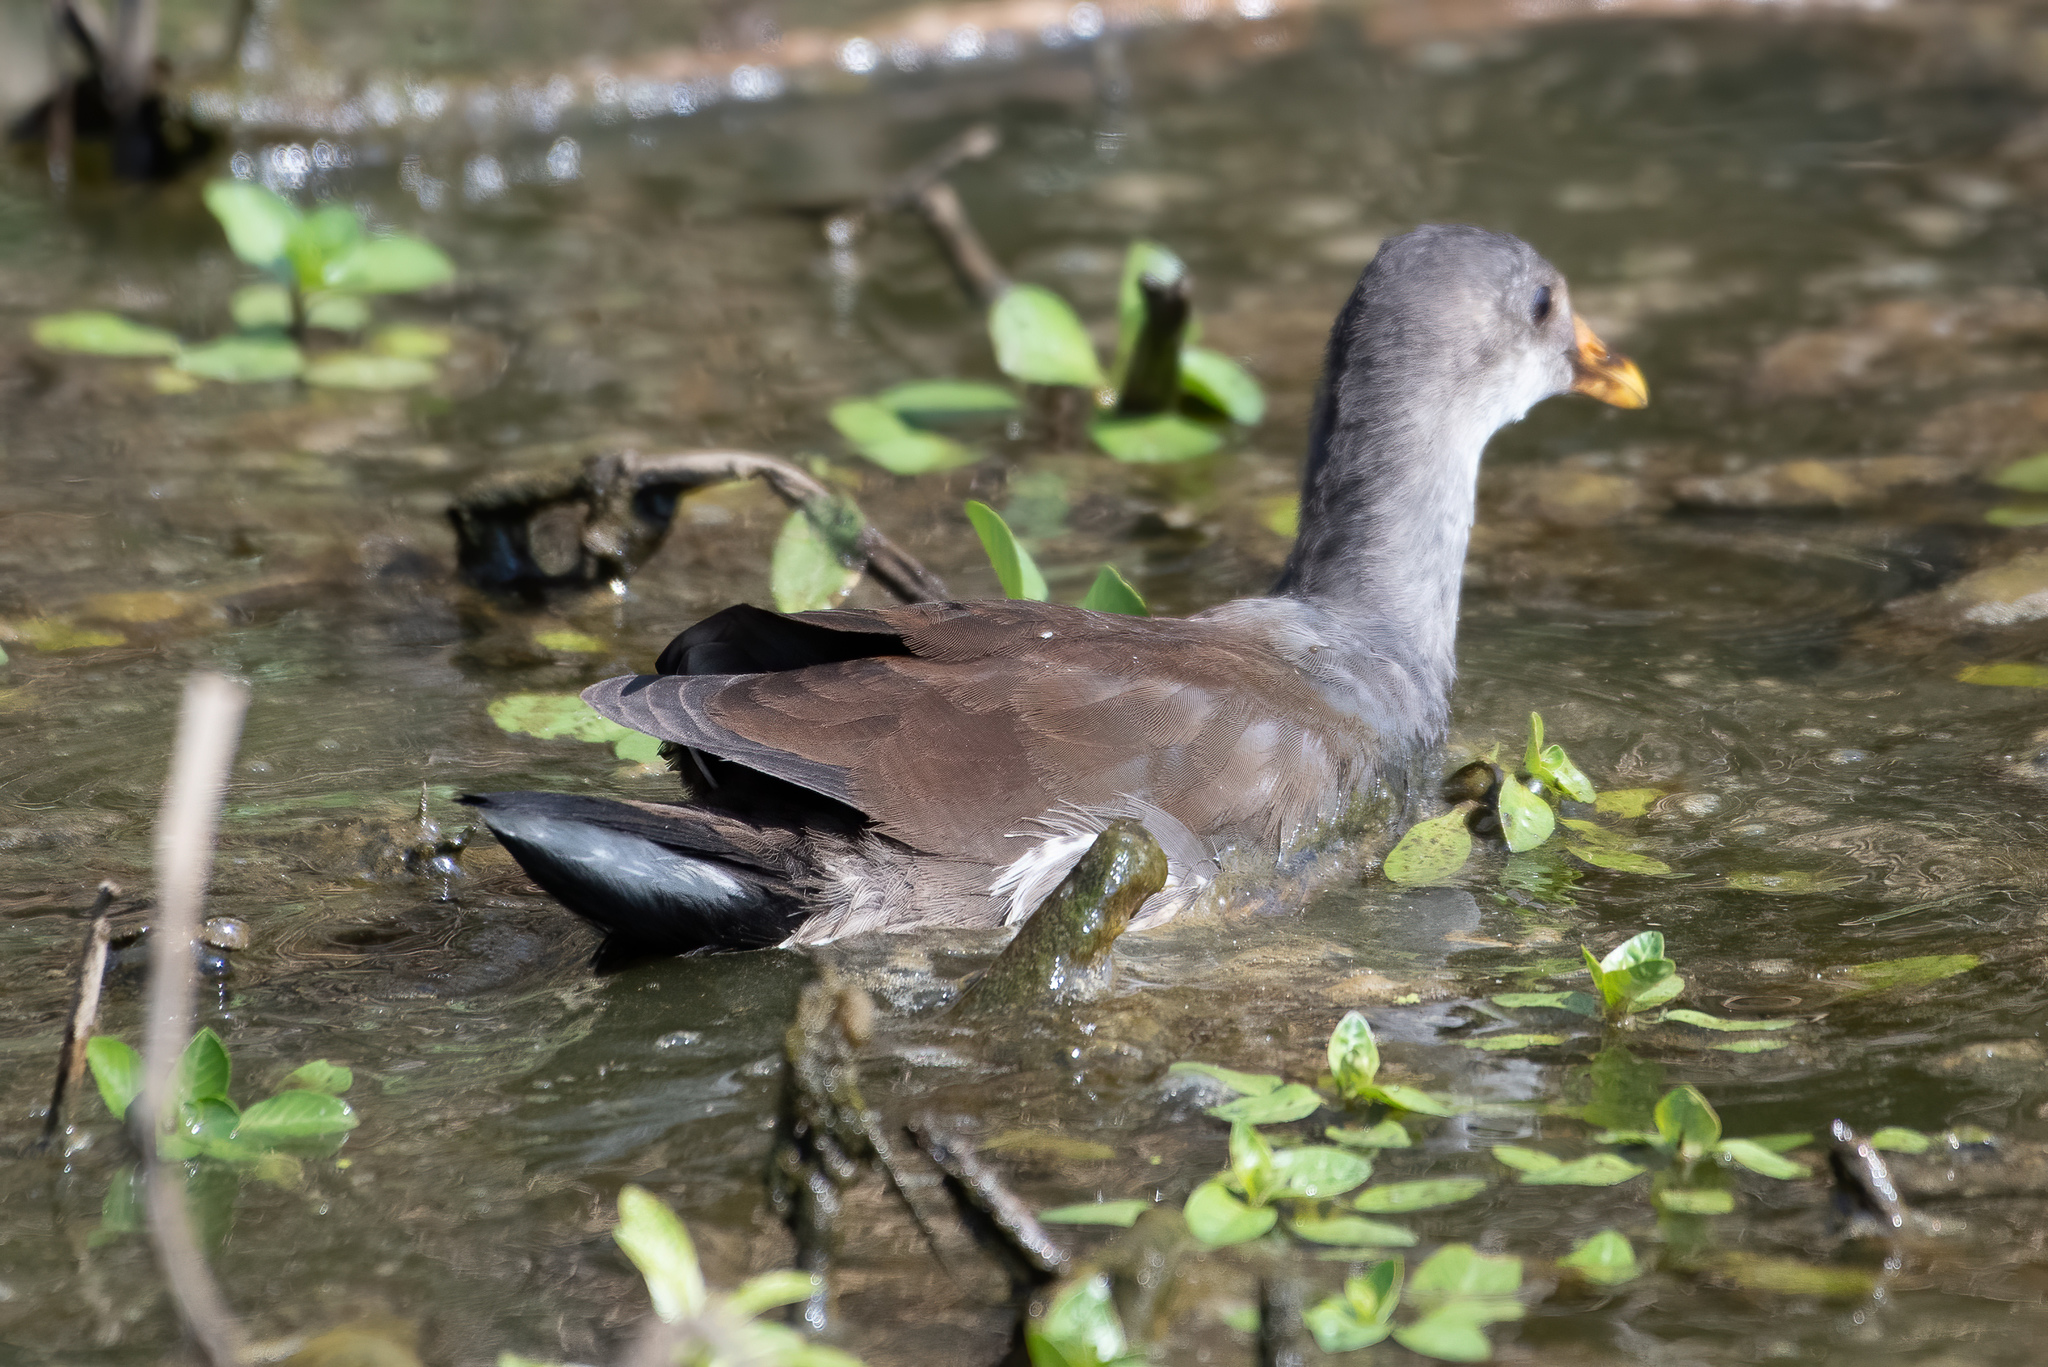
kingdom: Animalia
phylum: Chordata
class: Aves
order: Gruiformes
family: Rallidae
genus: Gallinula
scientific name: Gallinula chloropus
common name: Common moorhen
